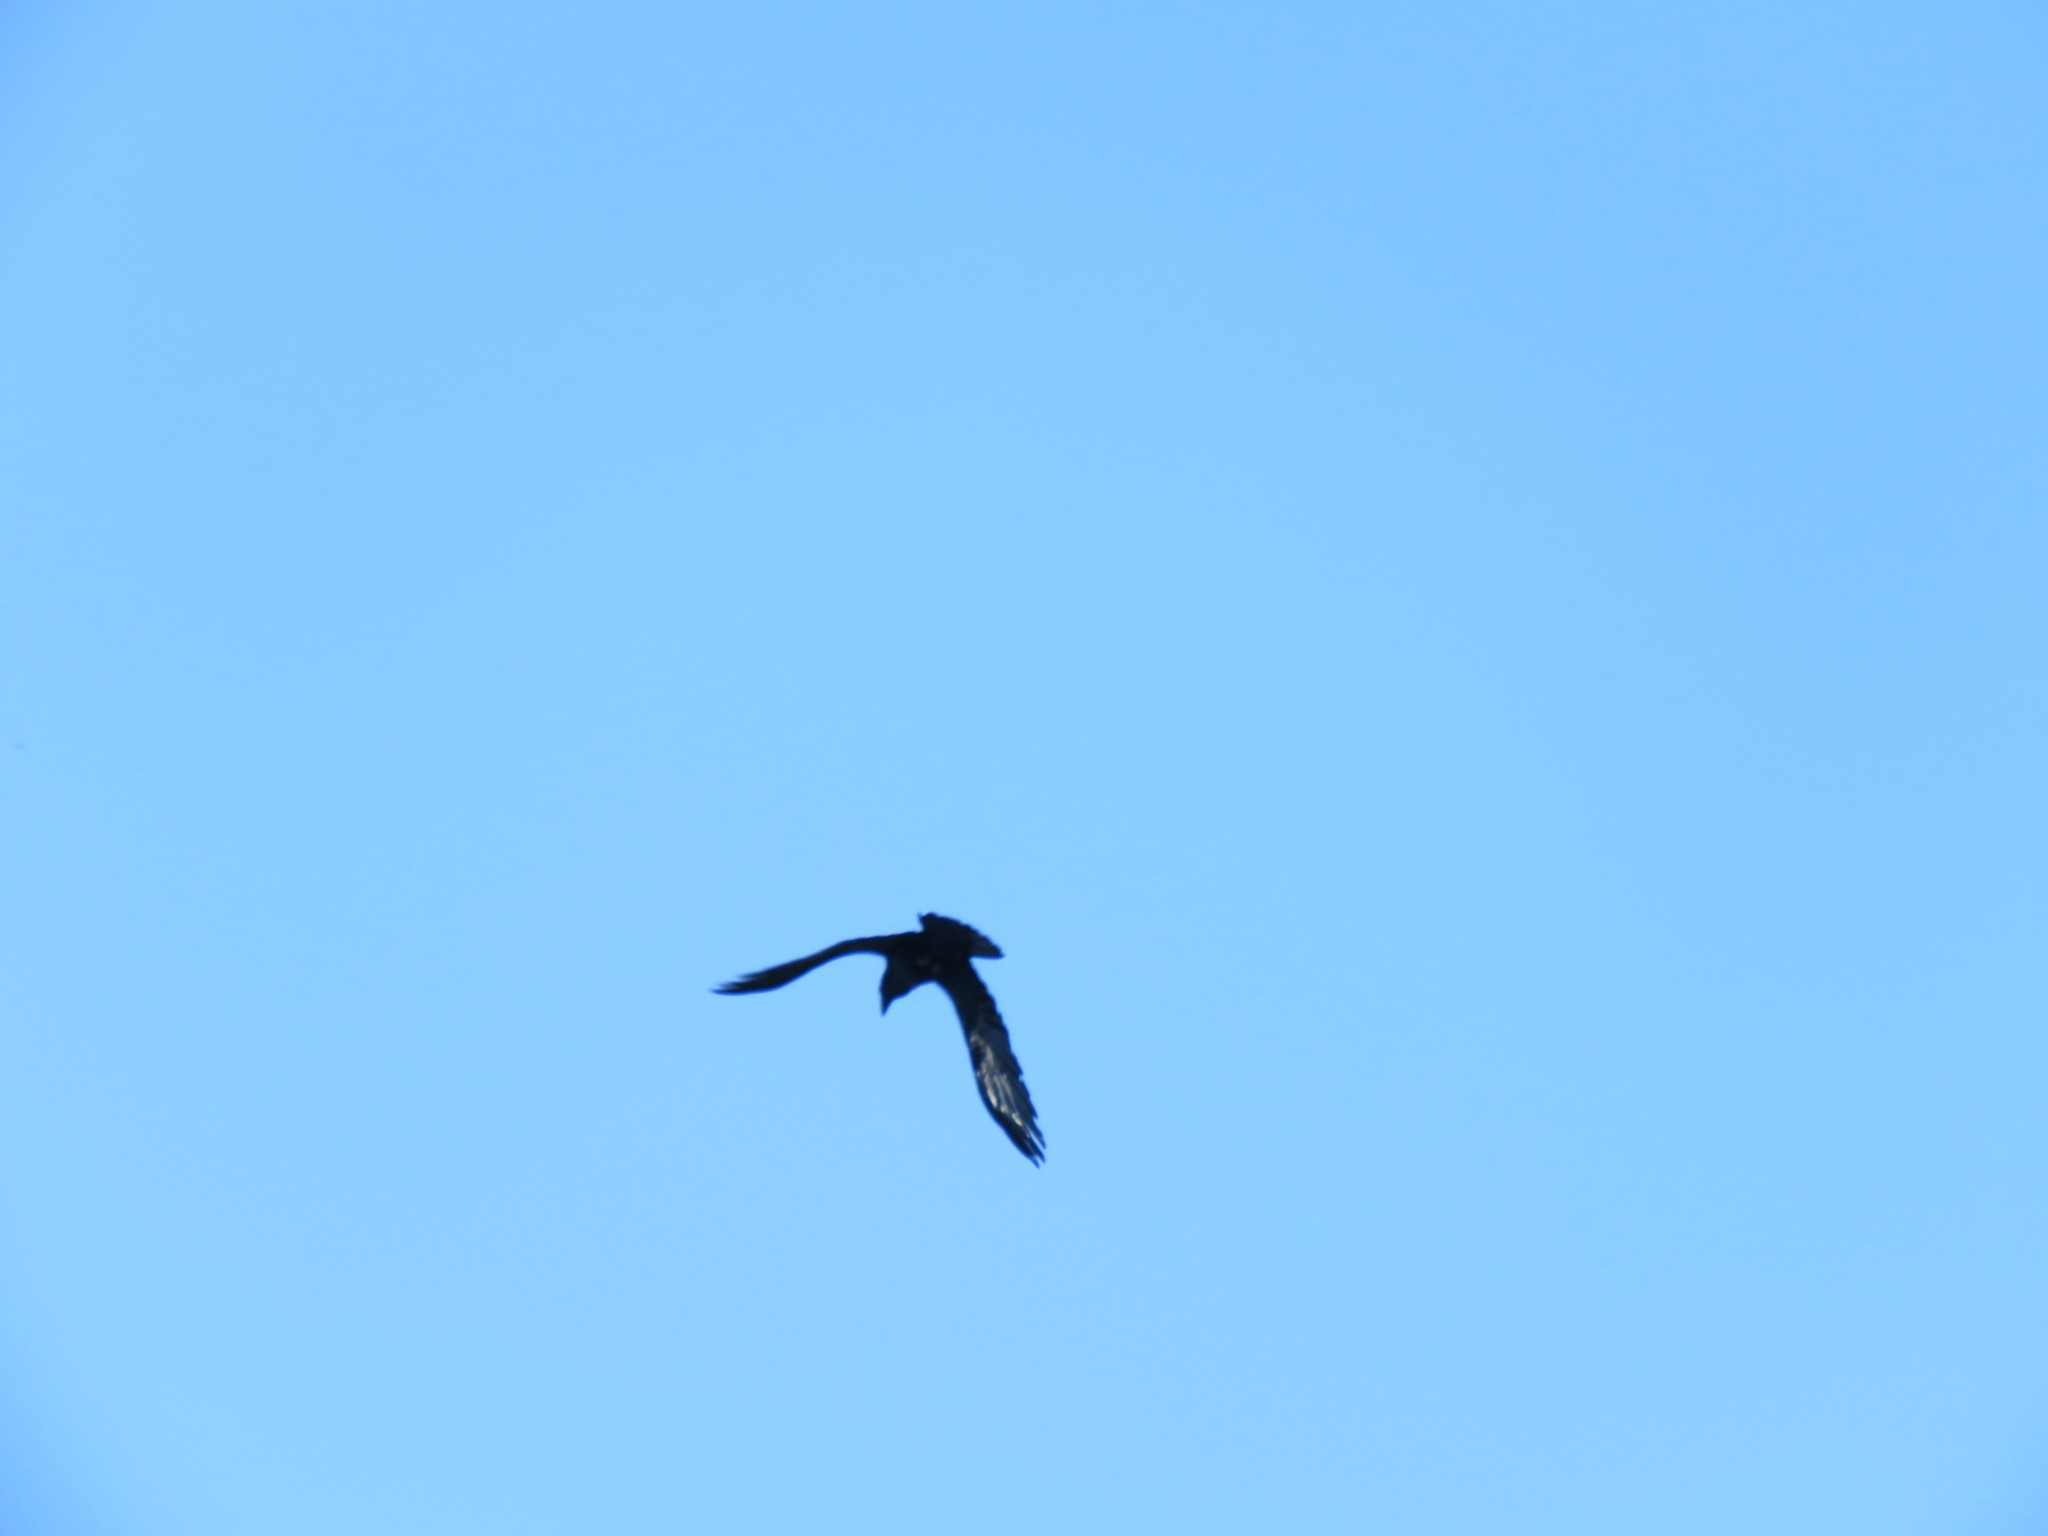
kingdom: Animalia
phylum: Chordata
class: Aves
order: Passeriformes
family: Corvidae
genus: Corvus
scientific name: Corvus corax
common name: Common raven
